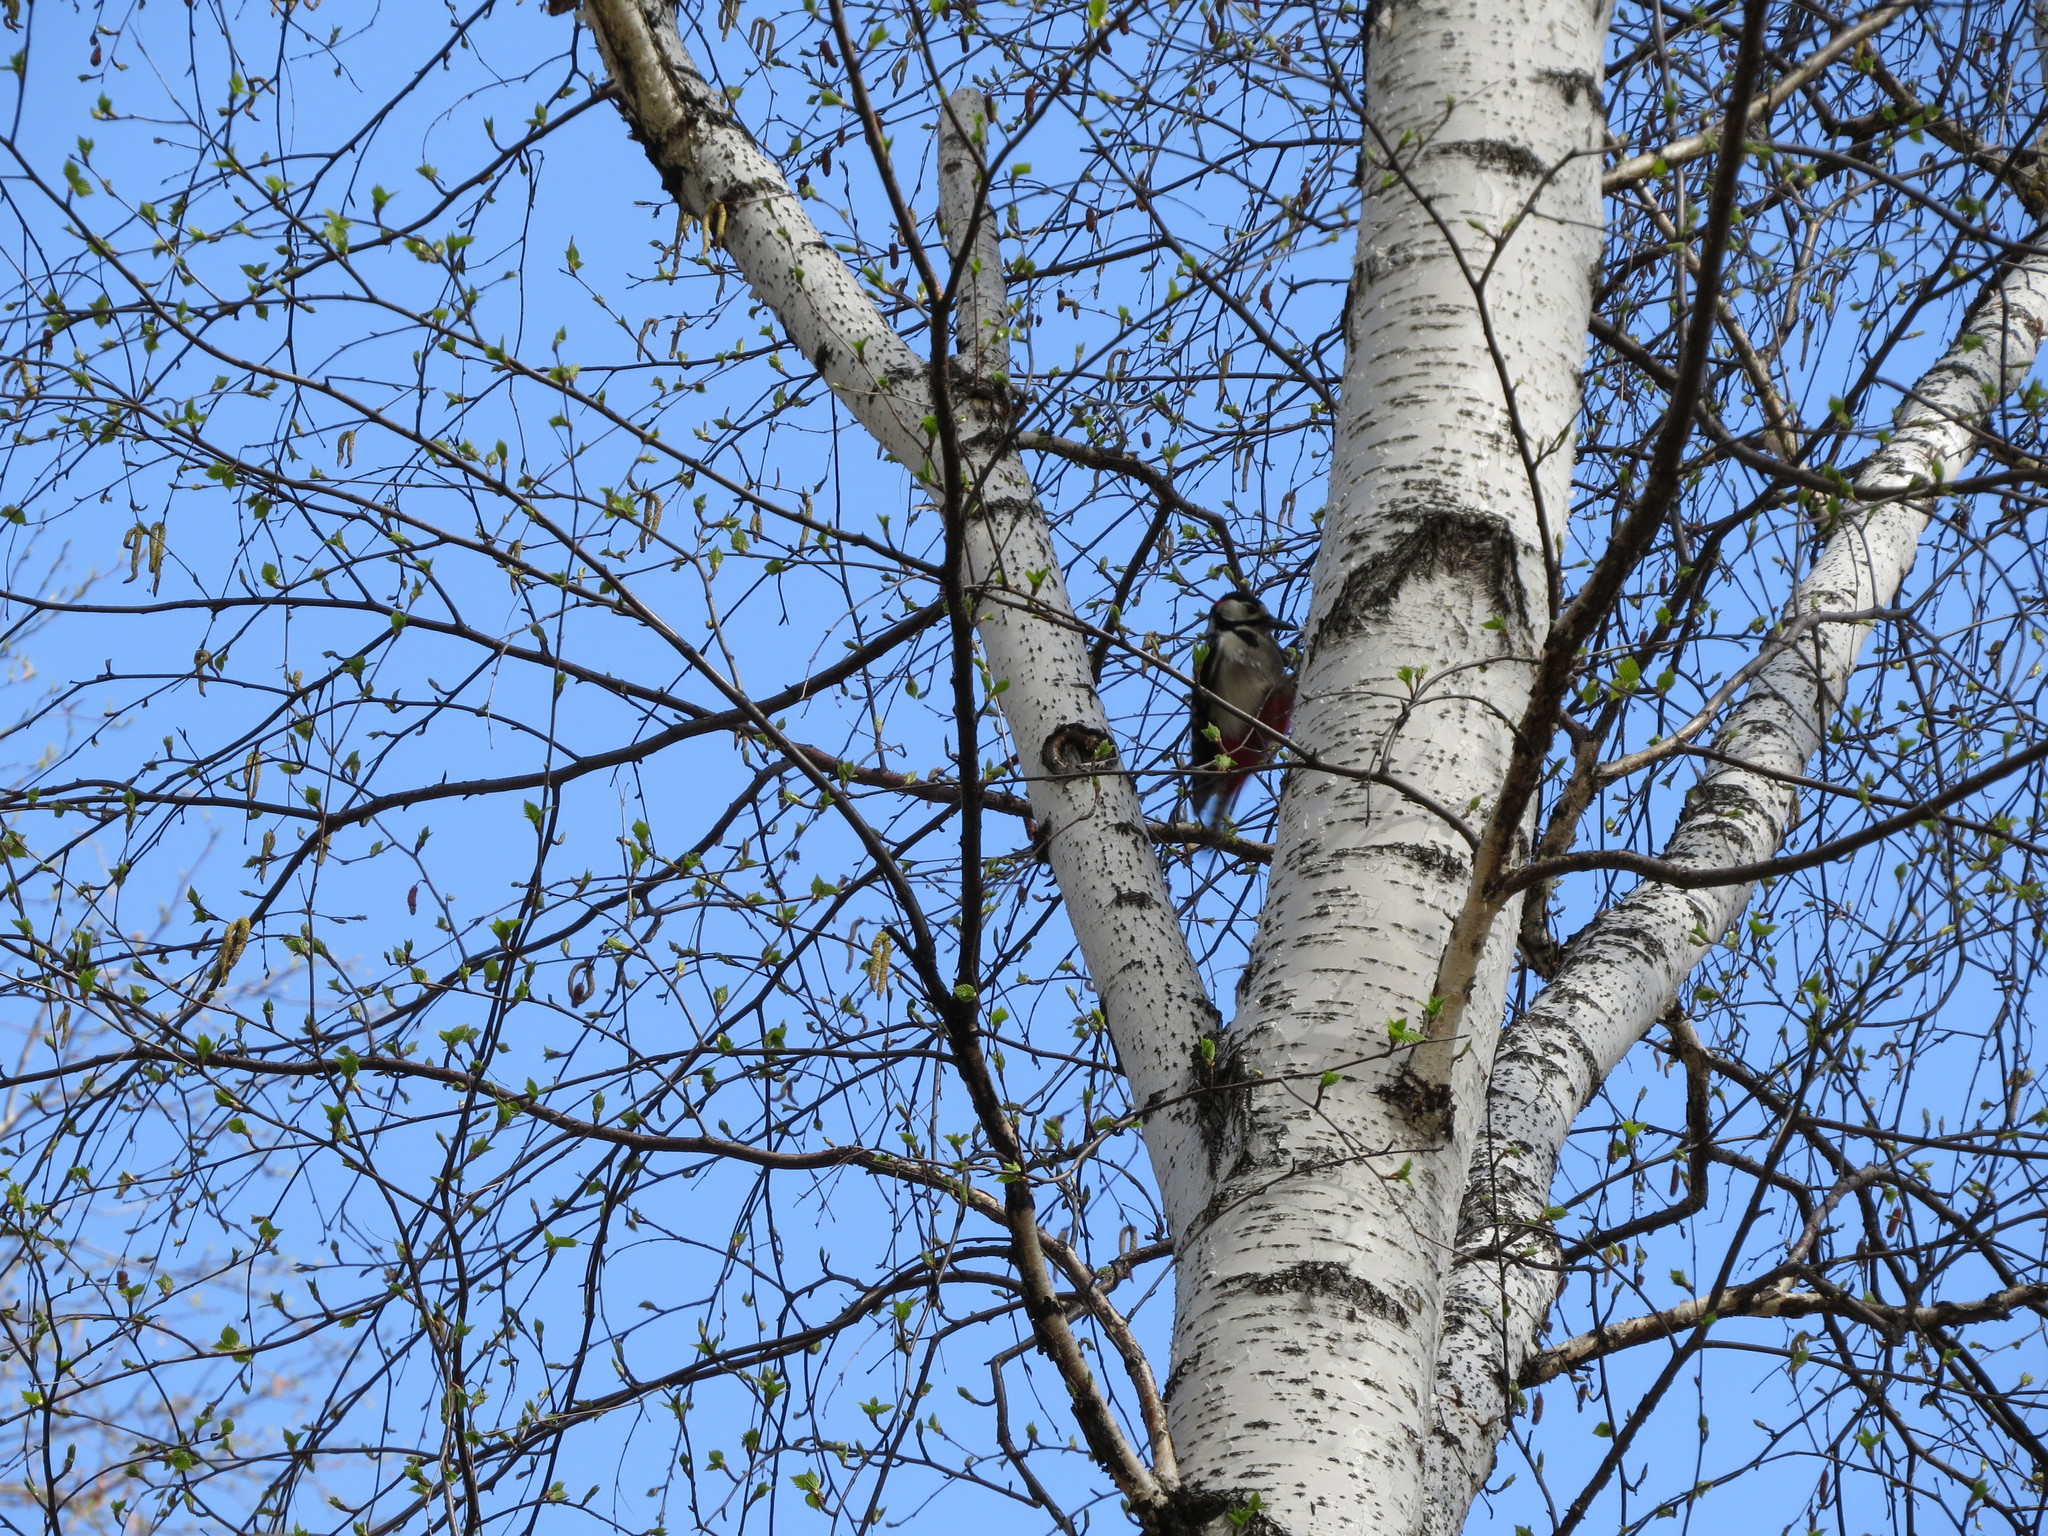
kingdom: Animalia
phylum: Chordata
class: Aves
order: Piciformes
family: Picidae
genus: Dendrocopos
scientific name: Dendrocopos major
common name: Great spotted woodpecker
